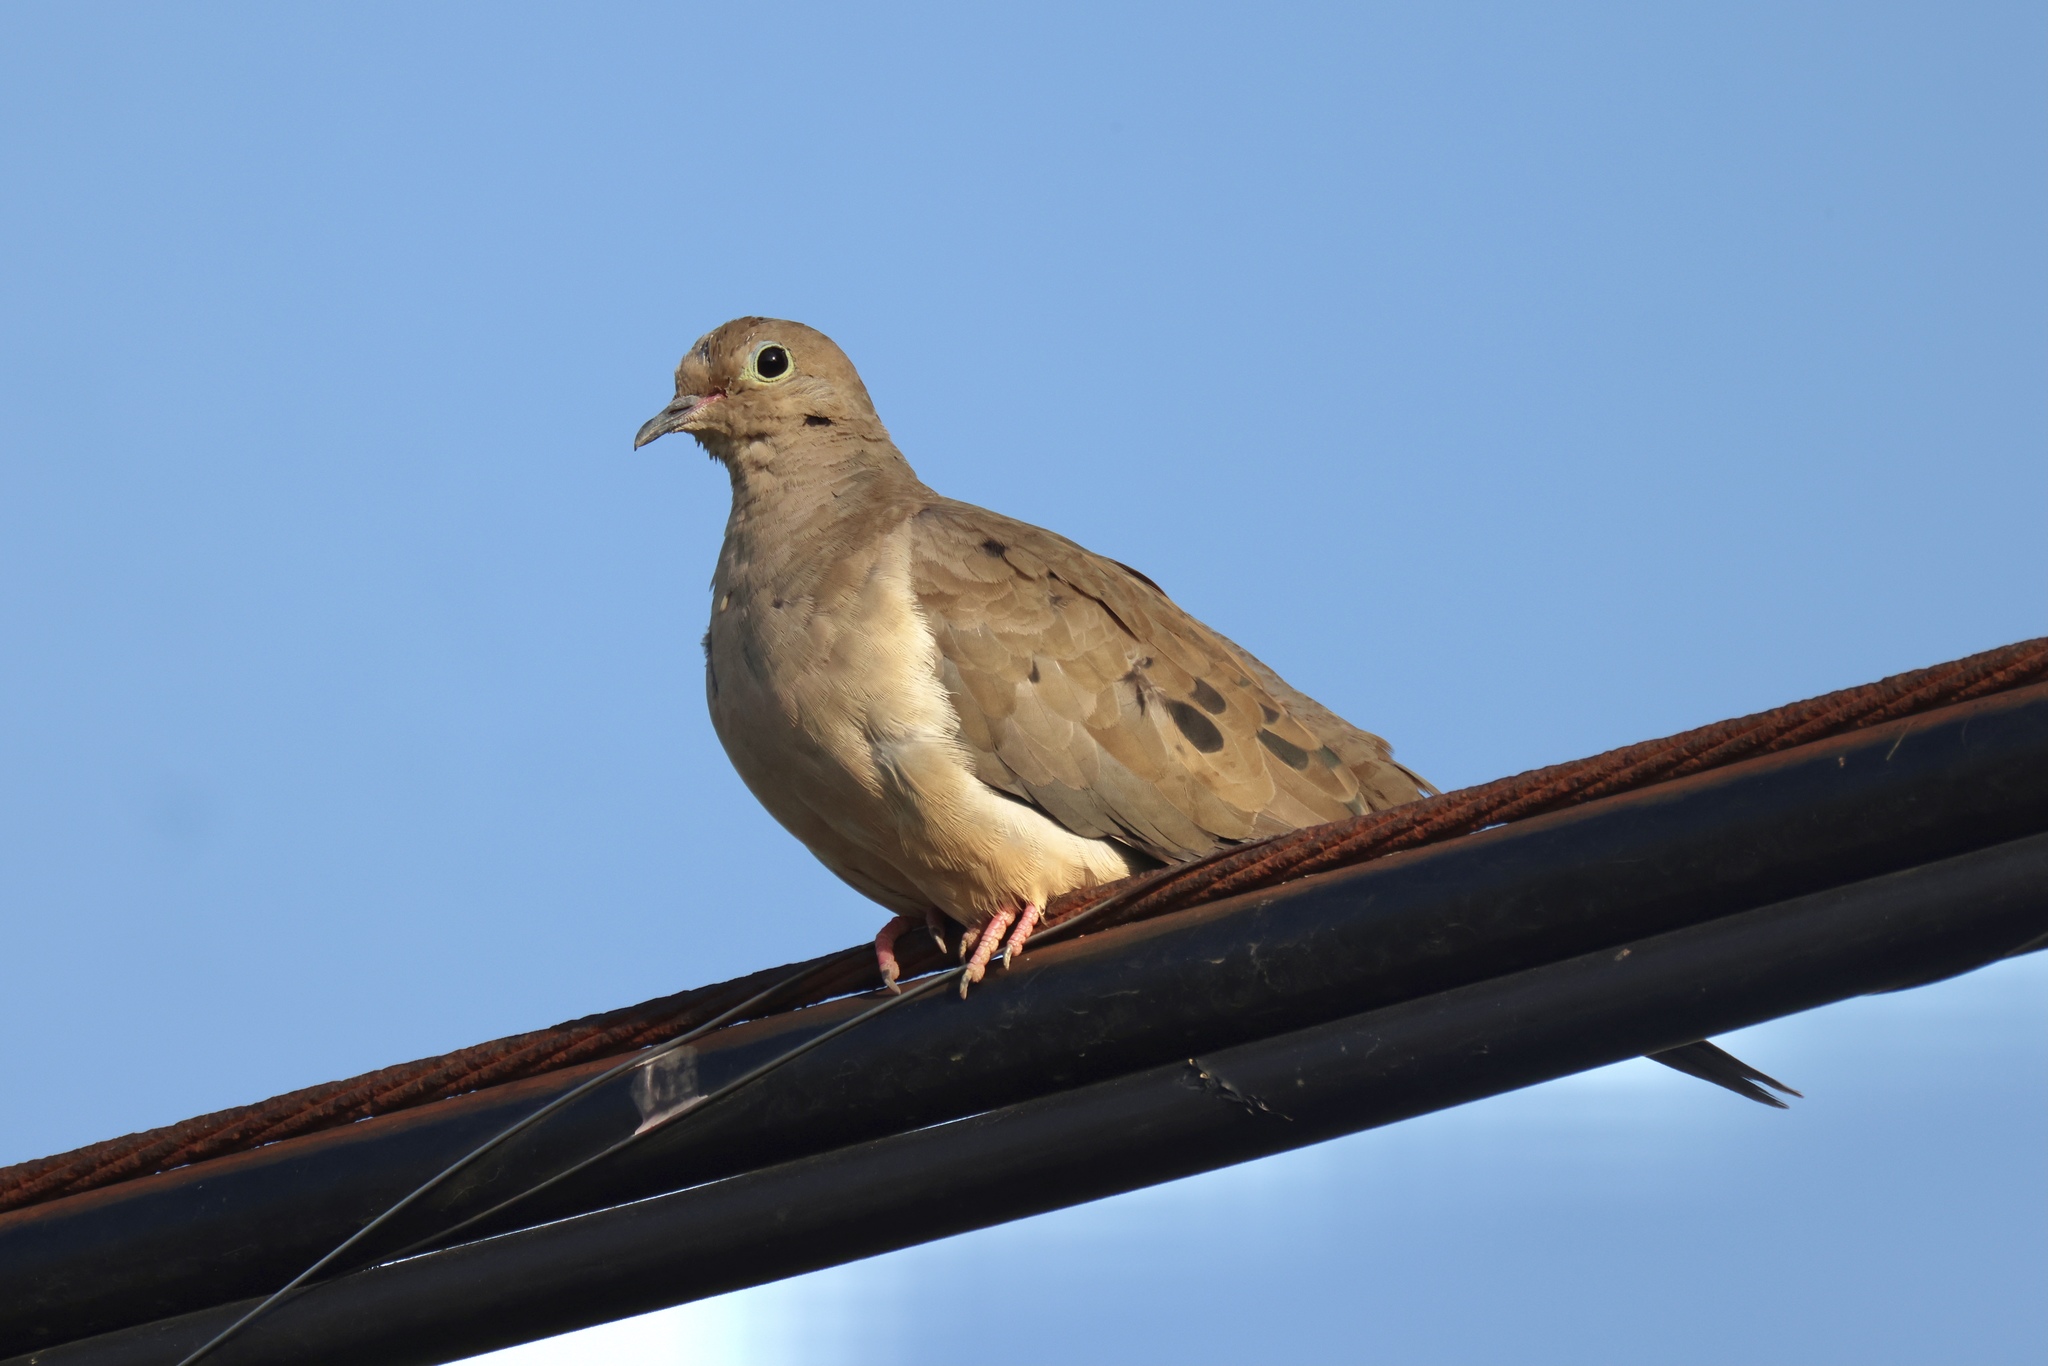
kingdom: Animalia
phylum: Chordata
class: Aves
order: Columbiformes
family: Columbidae
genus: Zenaida
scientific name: Zenaida macroura
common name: Mourning dove
